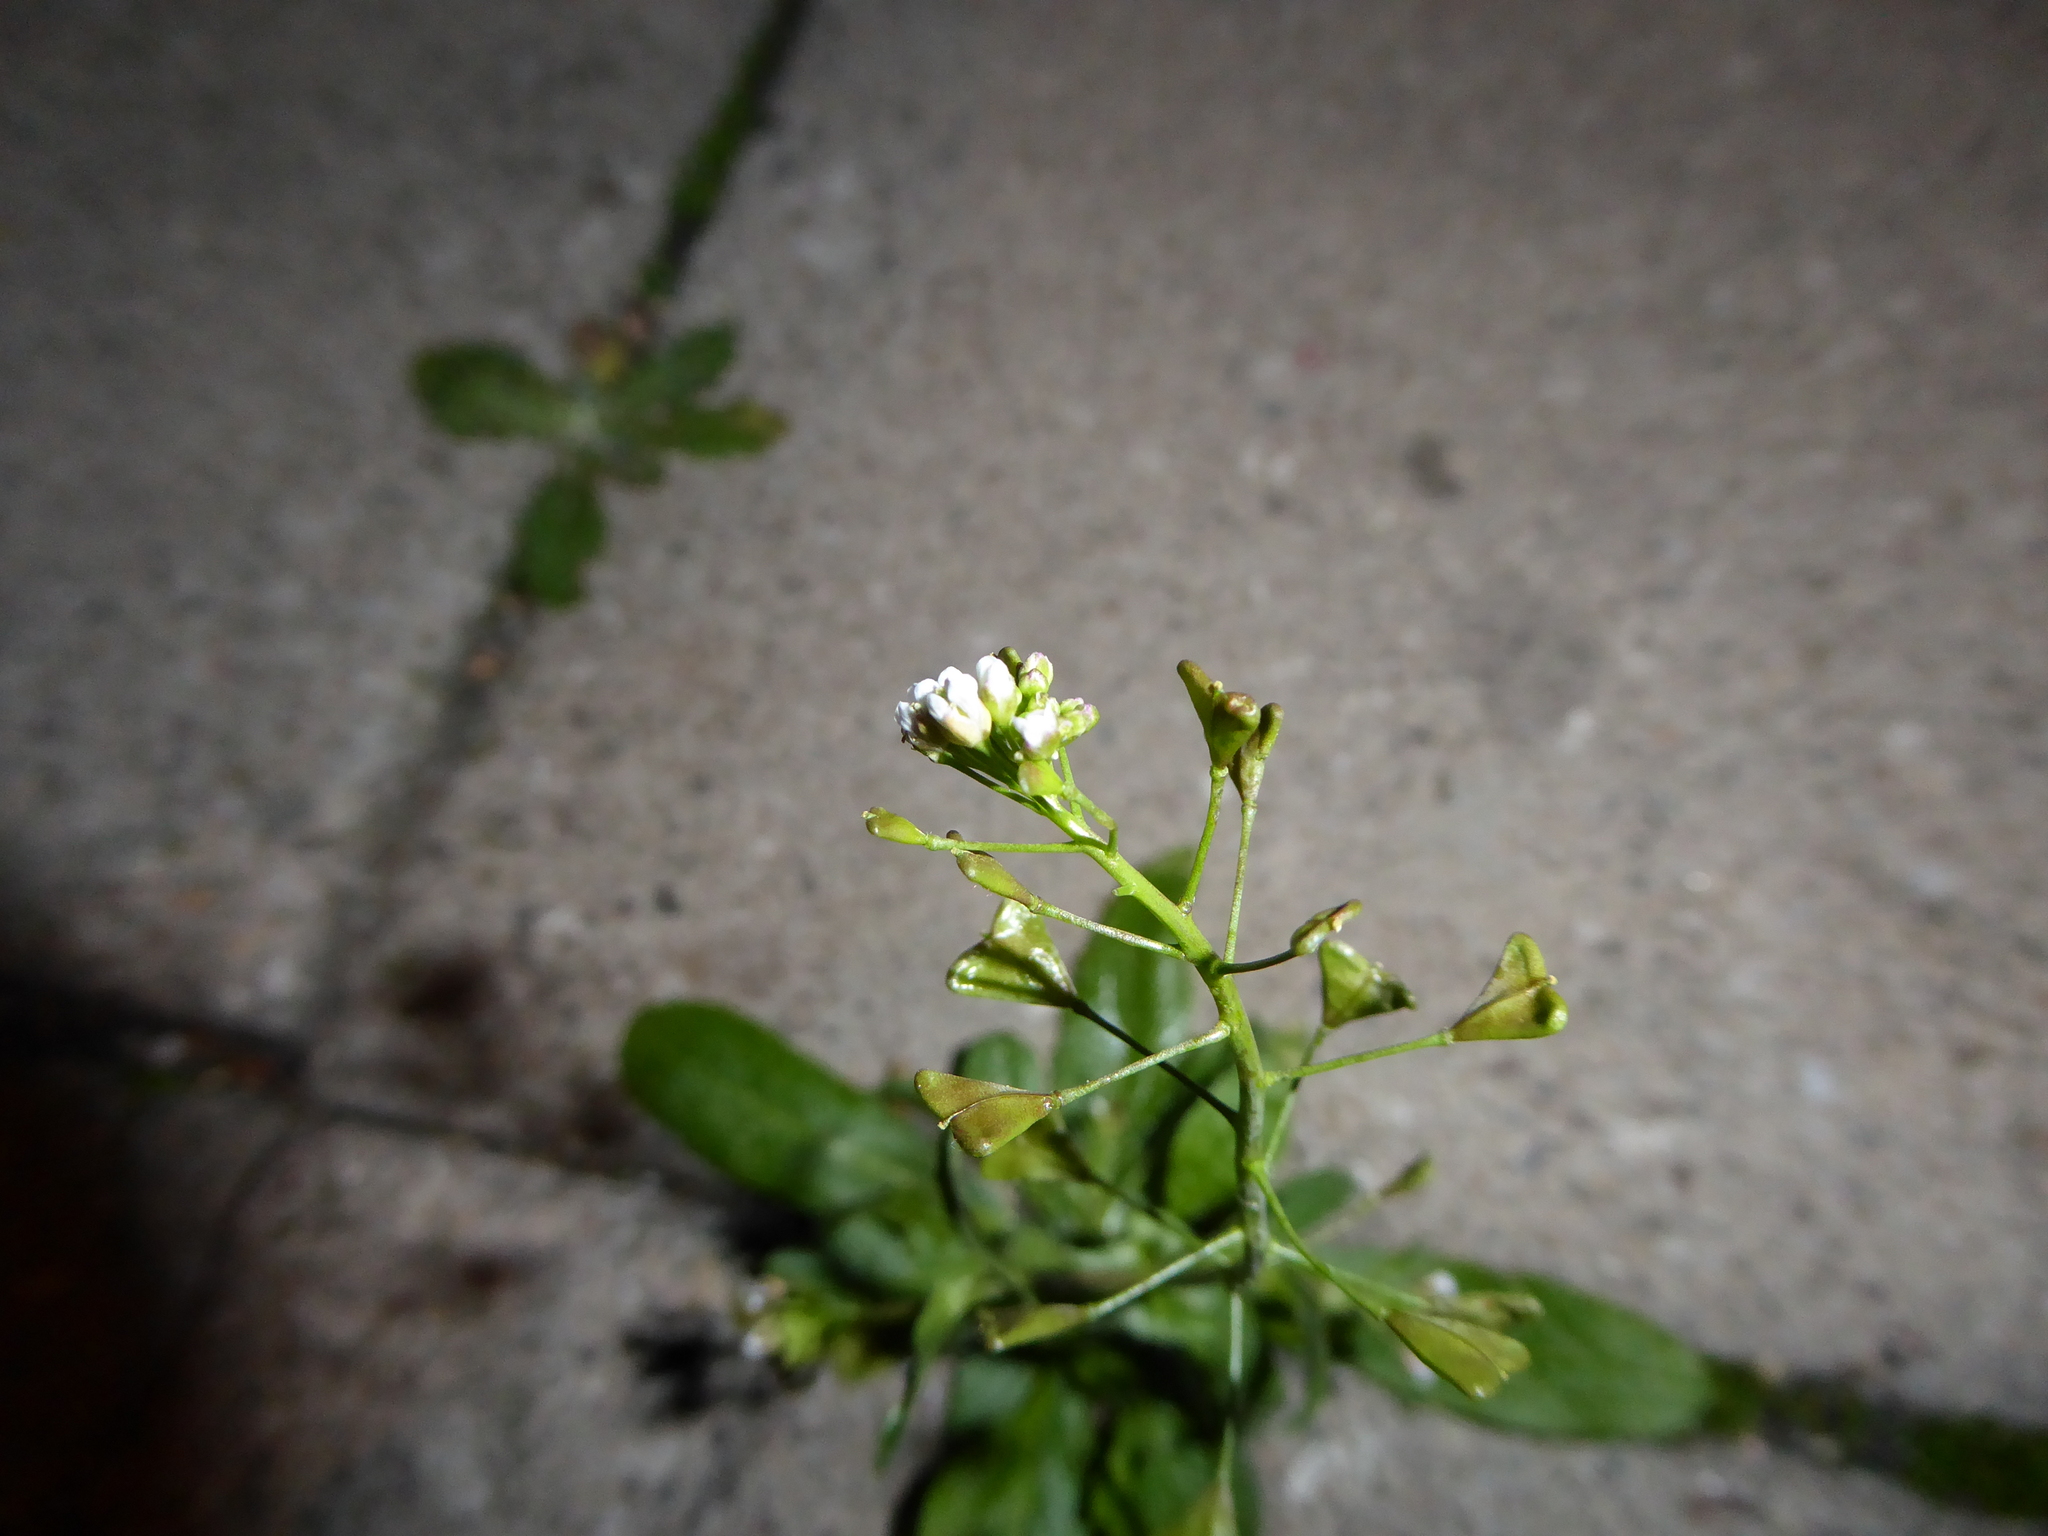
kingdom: Plantae
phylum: Tracheophyta
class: Magnoliopsida
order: Brassicales
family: Brassicaceae
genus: Capsella
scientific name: Capsella bursa-pastoris
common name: Shepherd's purse
